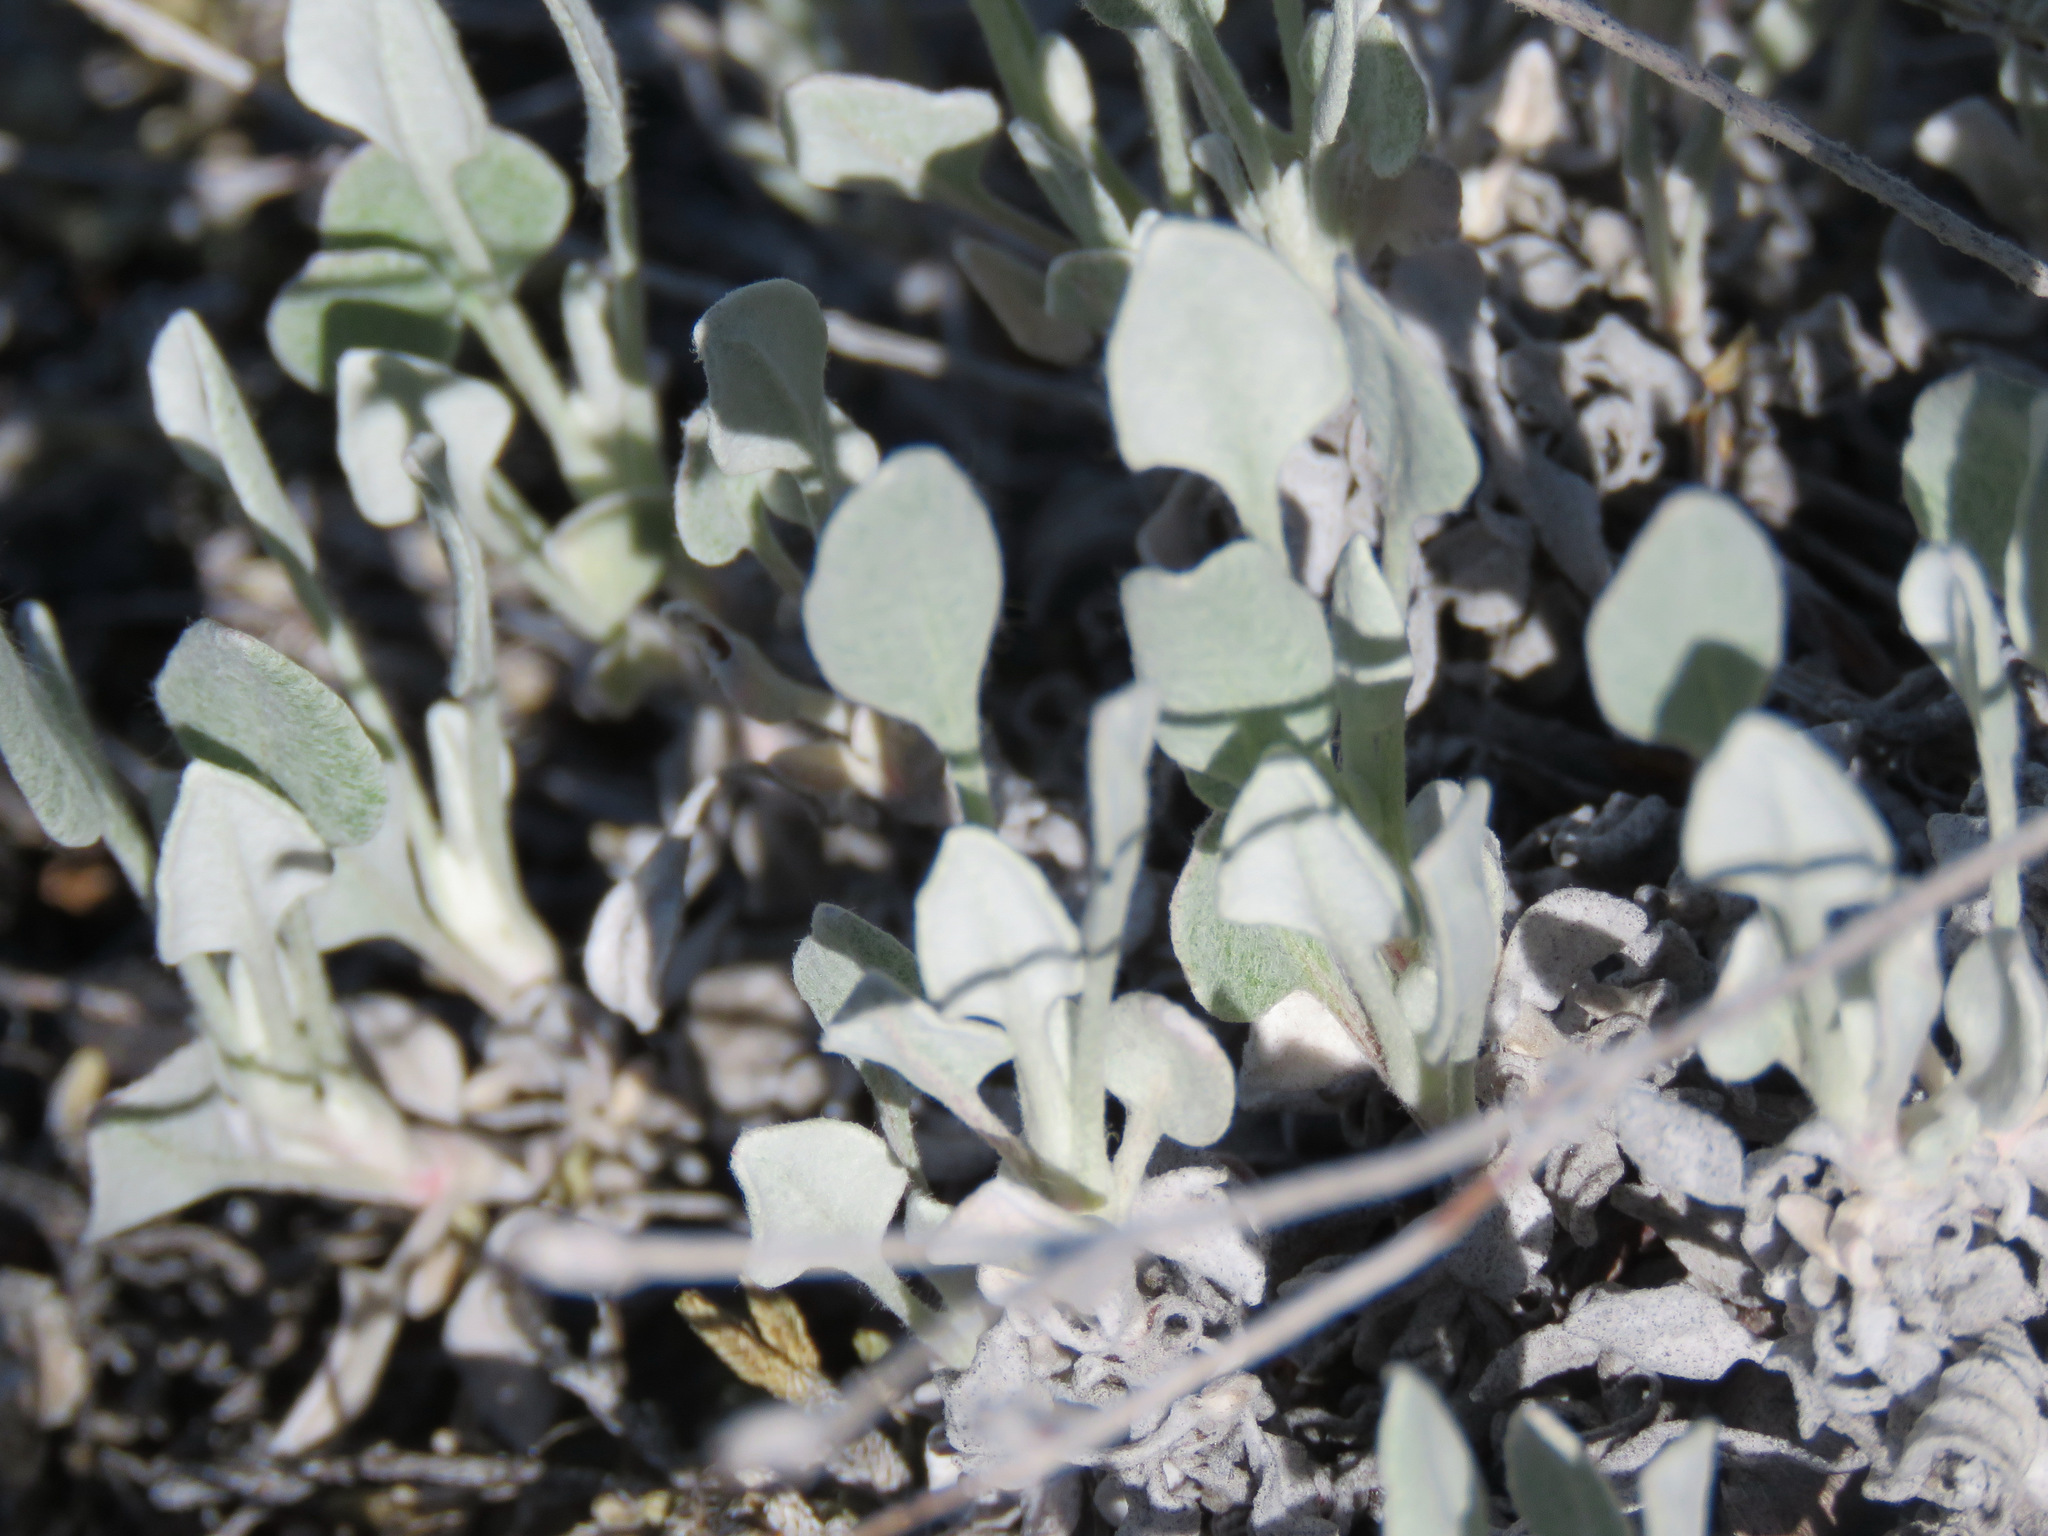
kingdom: Plantae
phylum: Tracheophyta
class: Magnoliopsida
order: Caryophyllales
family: Polygonaceae
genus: Eriogonum
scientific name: Eriogonum niveum
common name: Snow wild buckwheat
